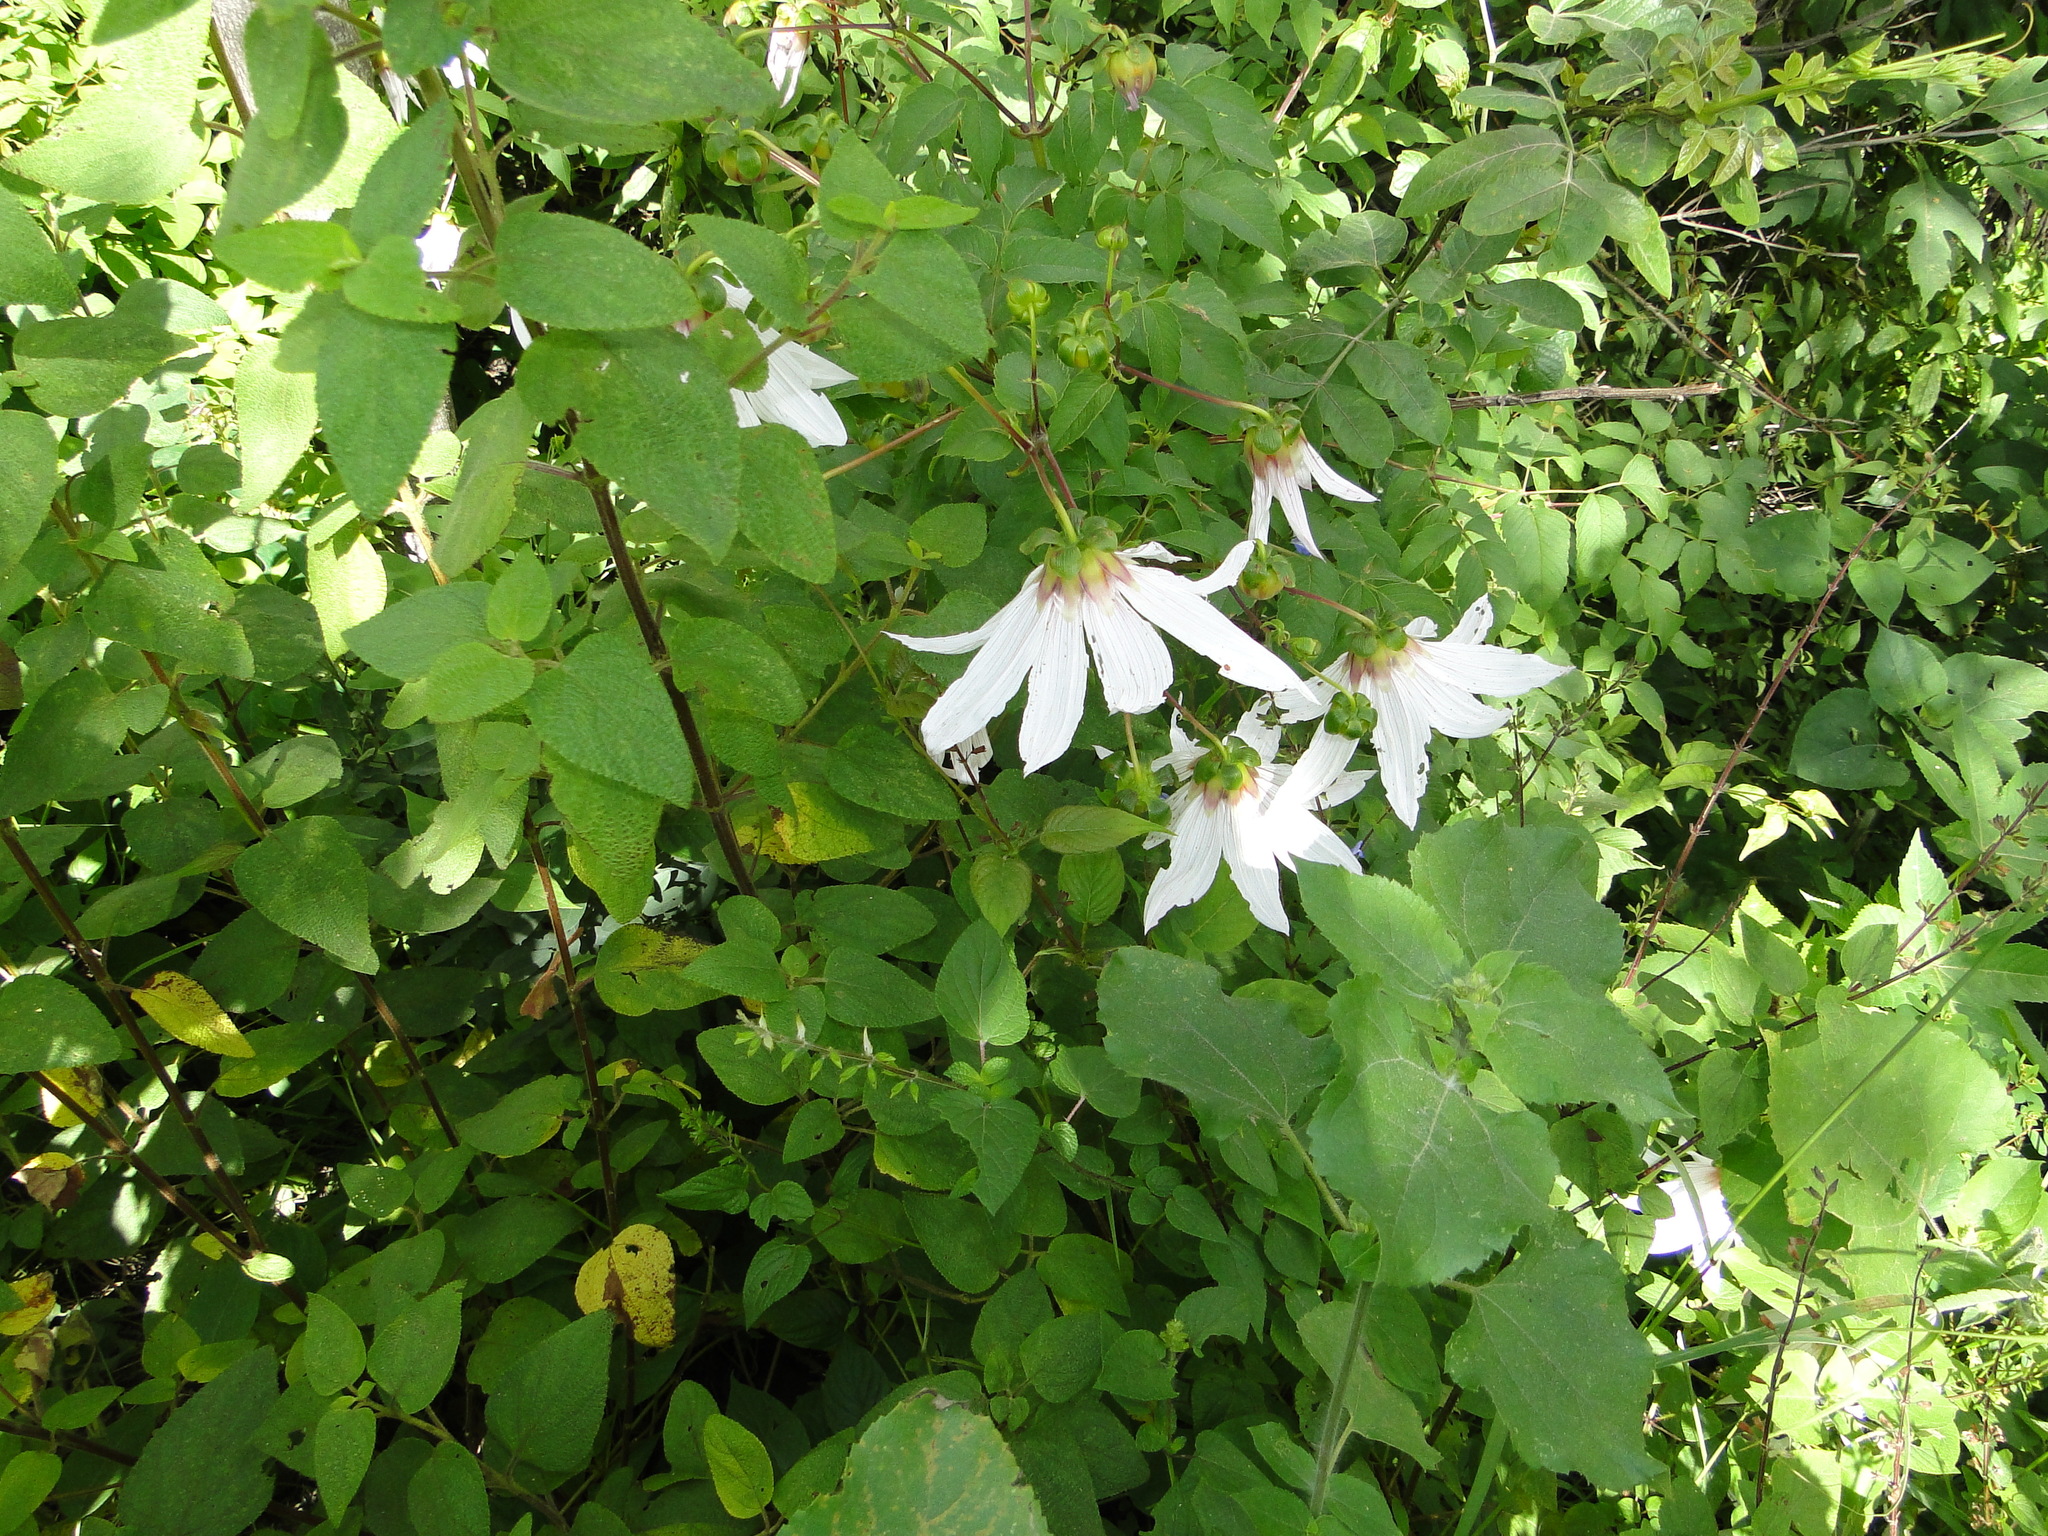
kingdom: Plantae
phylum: Tracheophyta
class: Magnoliopsida
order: Asterales
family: Asteraceae
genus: Dahlia
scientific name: Dahlia campanulata
